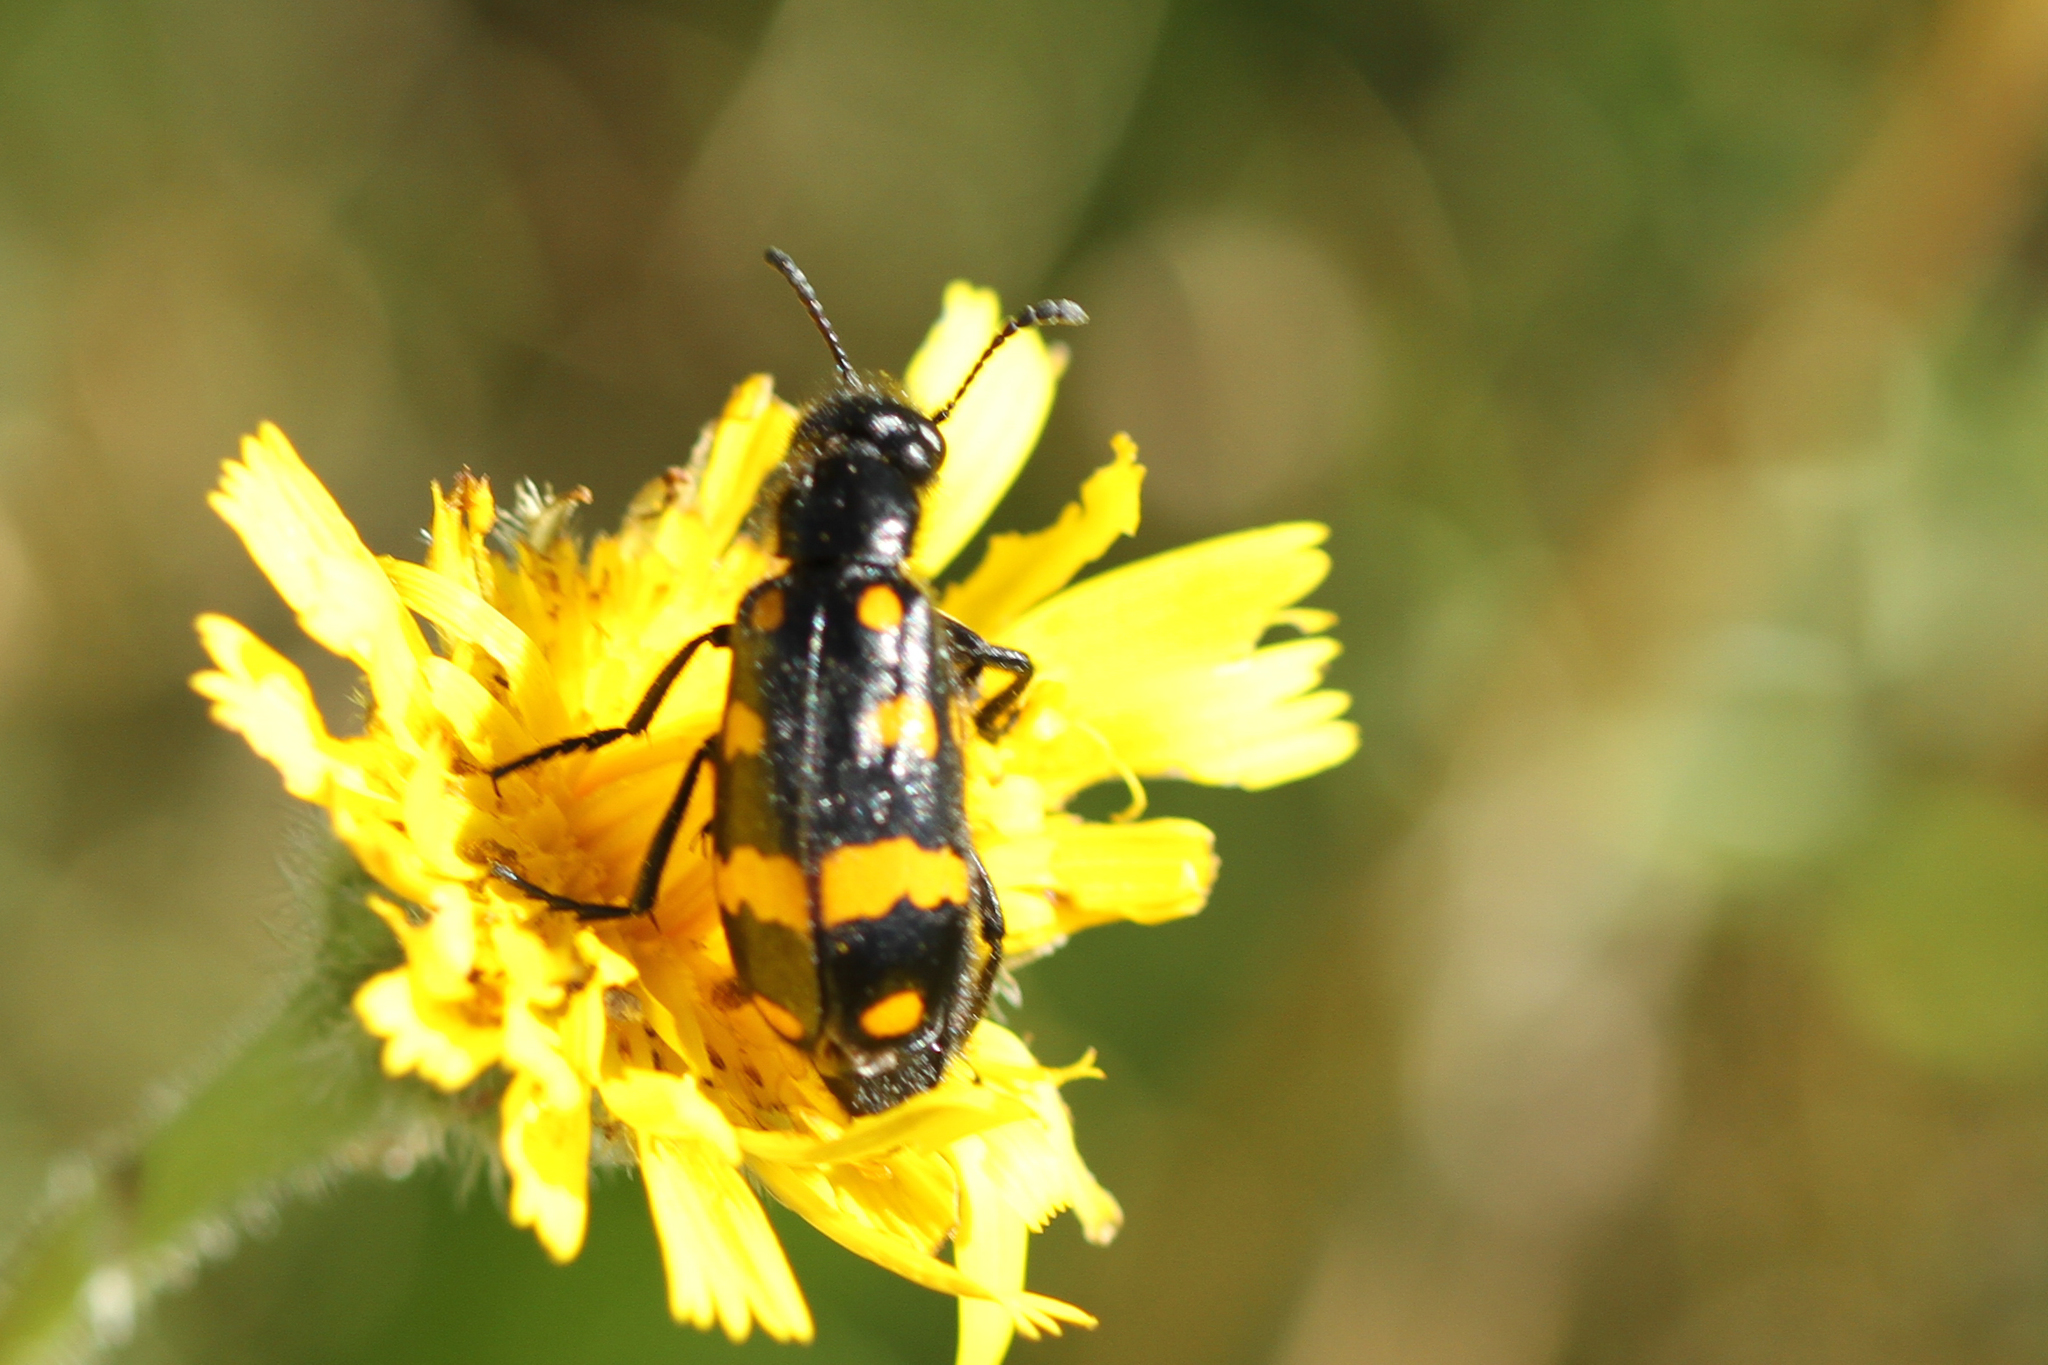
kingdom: Animalia
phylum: Arthropoda
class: Insecta
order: Coleoptera
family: Meloidae
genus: Hycleus
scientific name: Hycleus polymorphus
